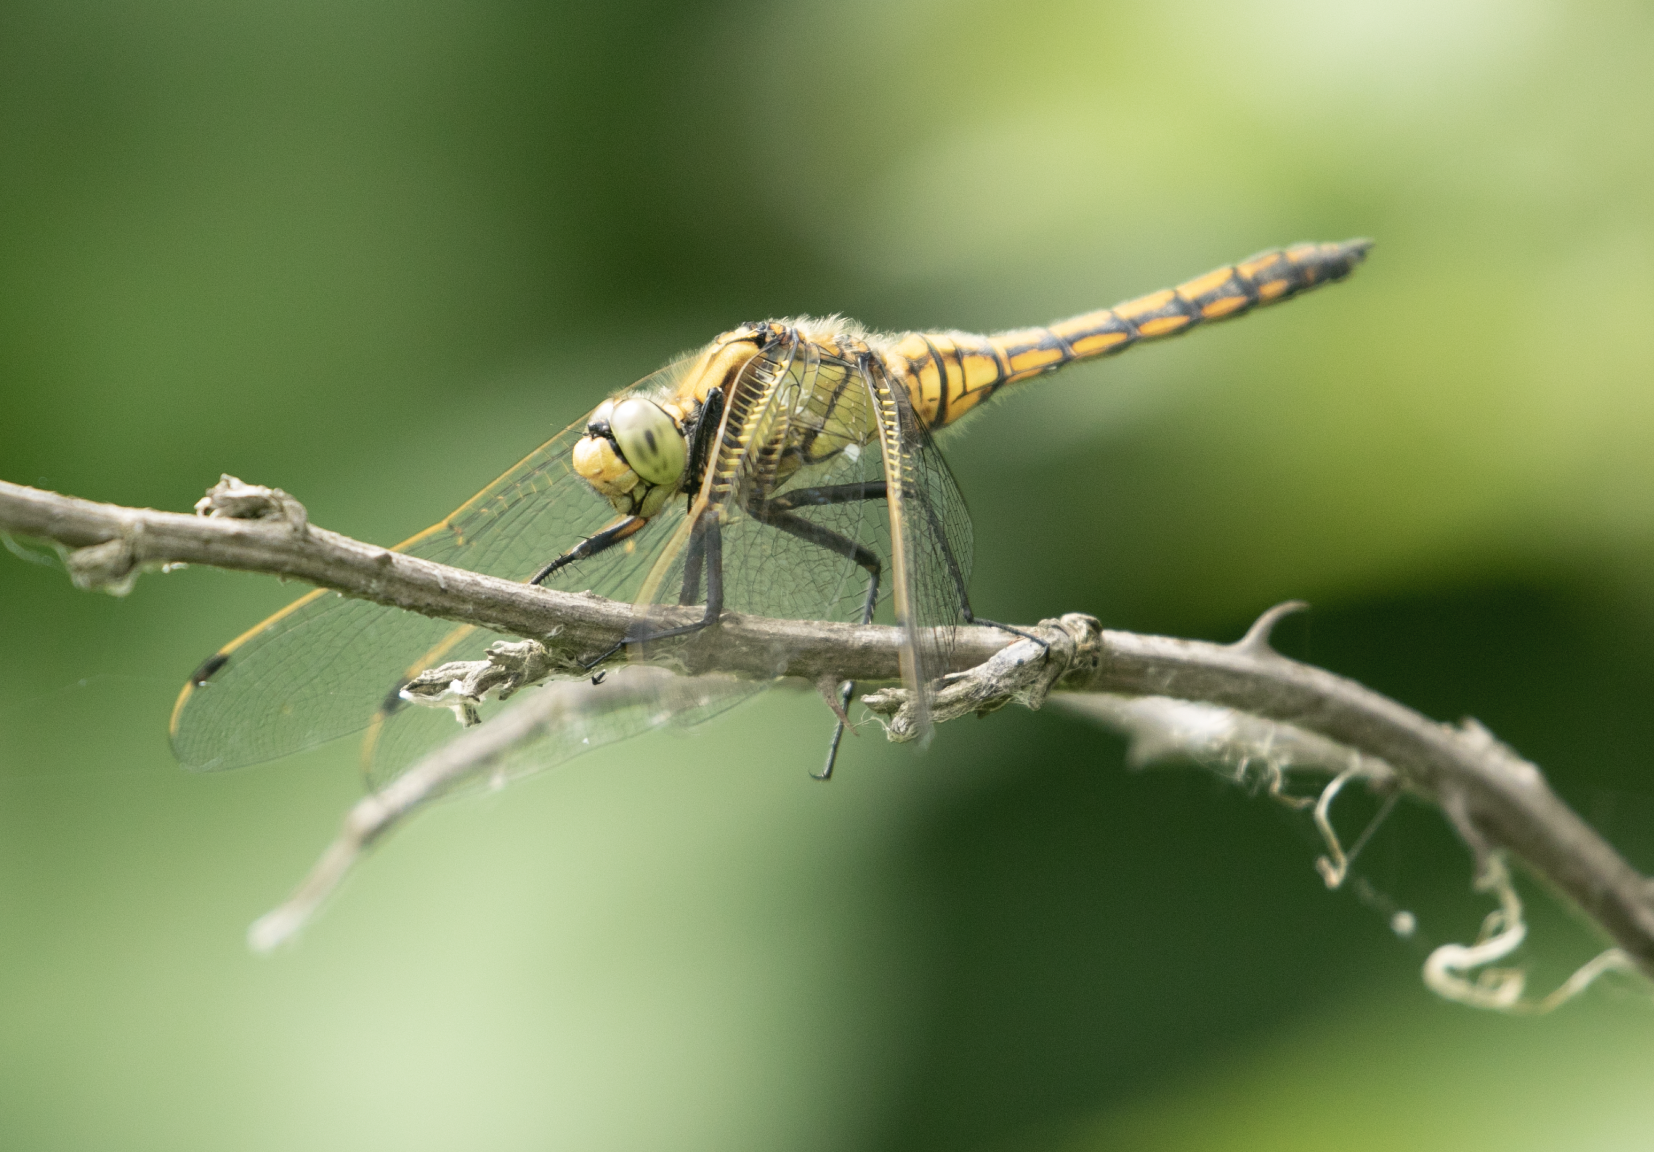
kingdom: Animalia
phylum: Arthropoda
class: Insecta
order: Odonata
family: Libellulidae
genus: Orthetrum
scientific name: Orthetrum cancellatum
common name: Black-tailed skimmer
